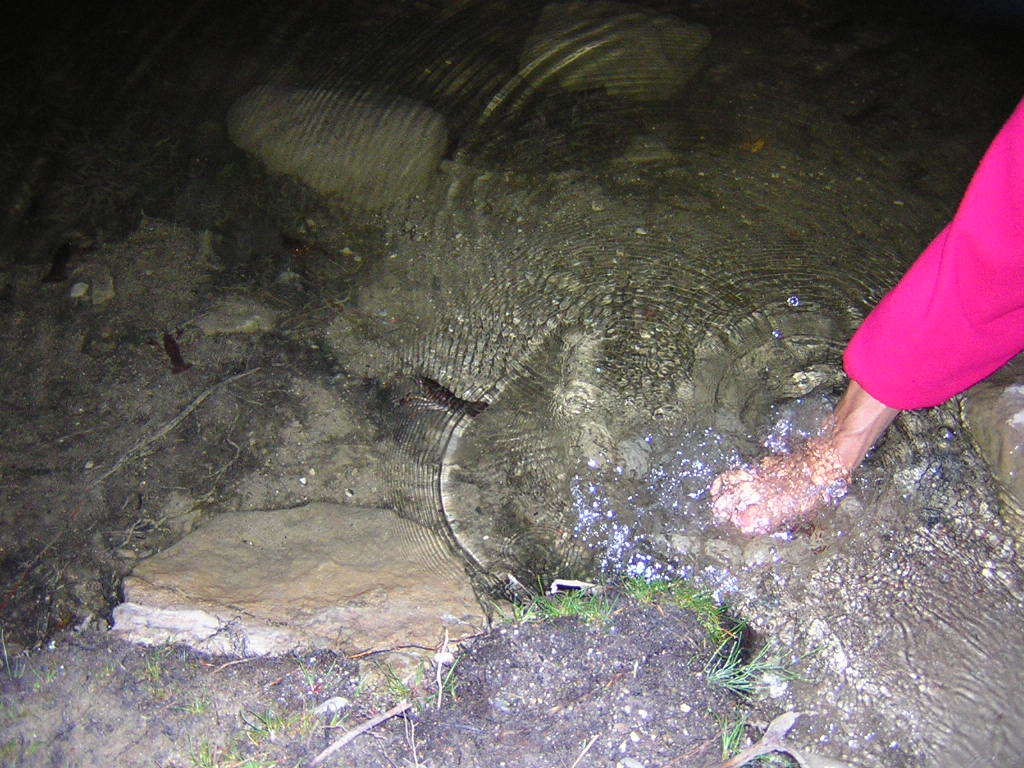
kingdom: Animalia
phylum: Arthropoda
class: Malacostraca
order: Decapoda
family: Astacidae
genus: Astacus
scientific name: Astacus astacus
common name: Noble crayfish
